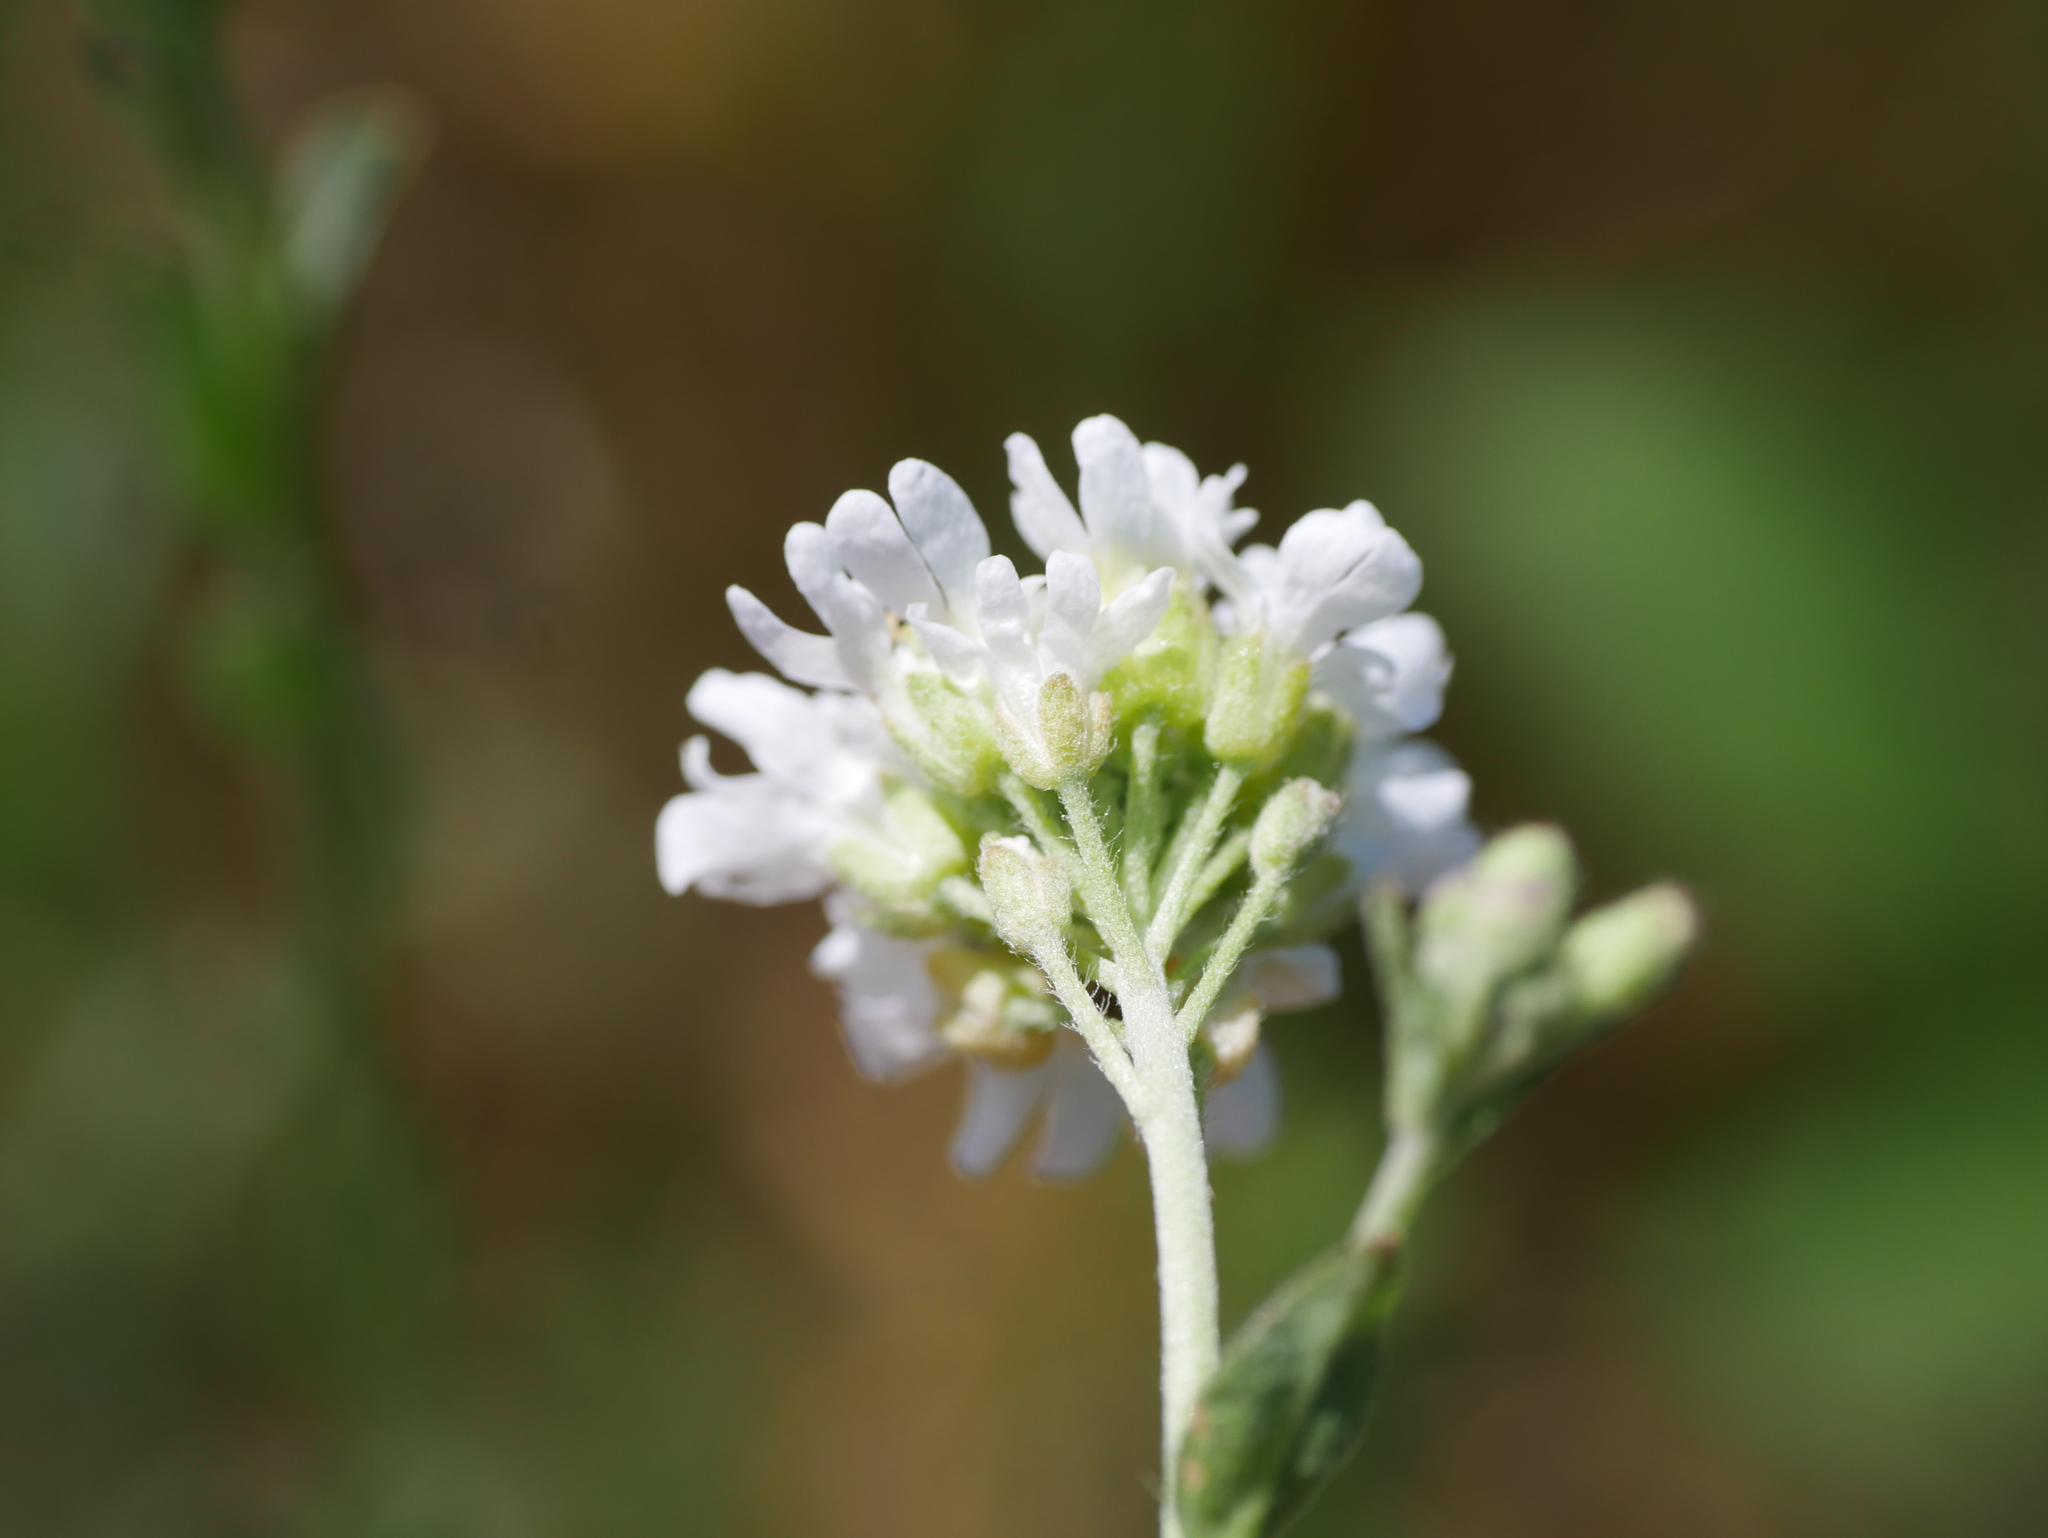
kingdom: Plantae
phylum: Tracheophyta
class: Magnoliopsida
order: Brassicales
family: Brassicaceae
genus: Berteroa
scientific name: Berteroa incana
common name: Hoary alison
